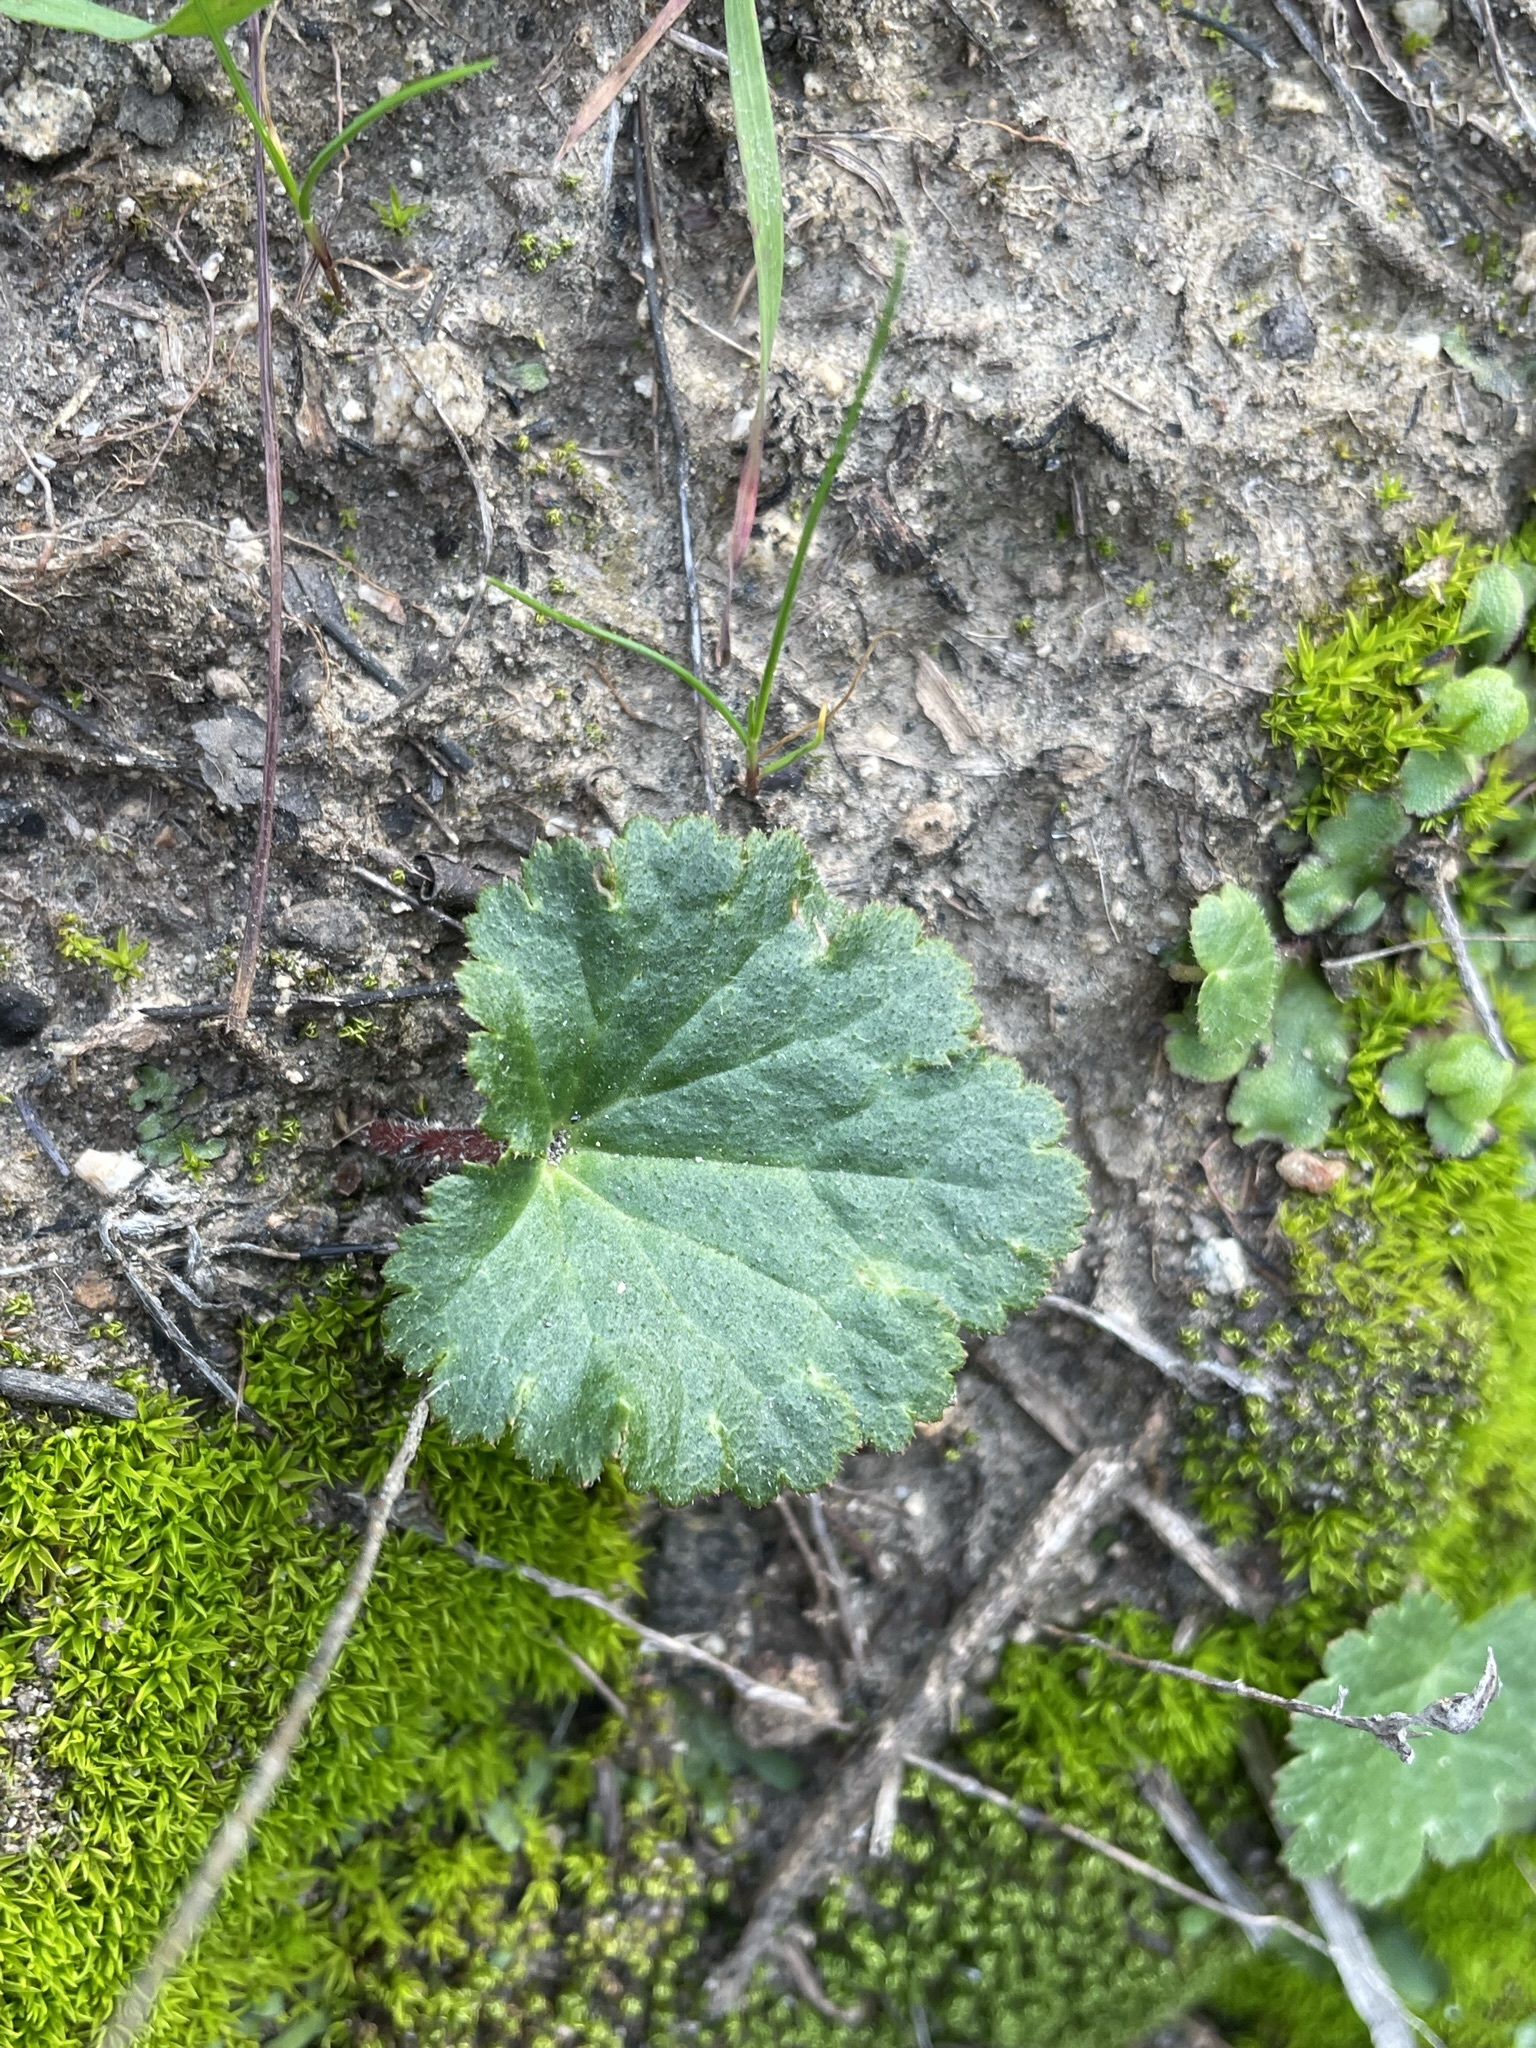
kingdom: Plantae
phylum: Tracheophyta
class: Magnoliopsida
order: Saxifragales
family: Saxifragaceae
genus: Jepsonia
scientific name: Jepsonia parryi
